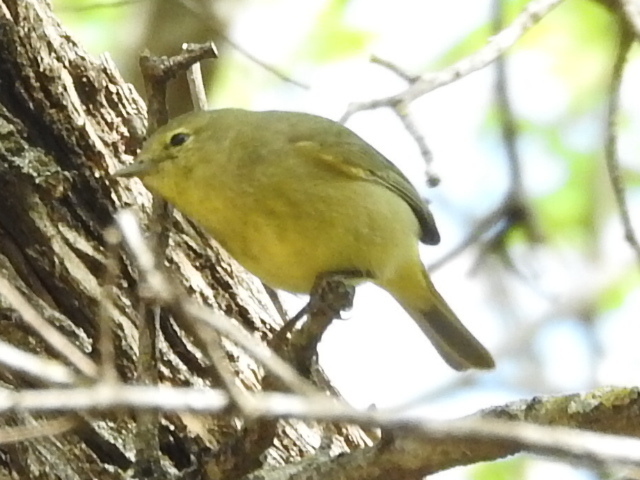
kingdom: Animalia
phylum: Chordata
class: Aves
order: Passeriformes
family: Parulidae
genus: Leiothlypis
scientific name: Leiothlypis celata
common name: Orange-crowned warbler
